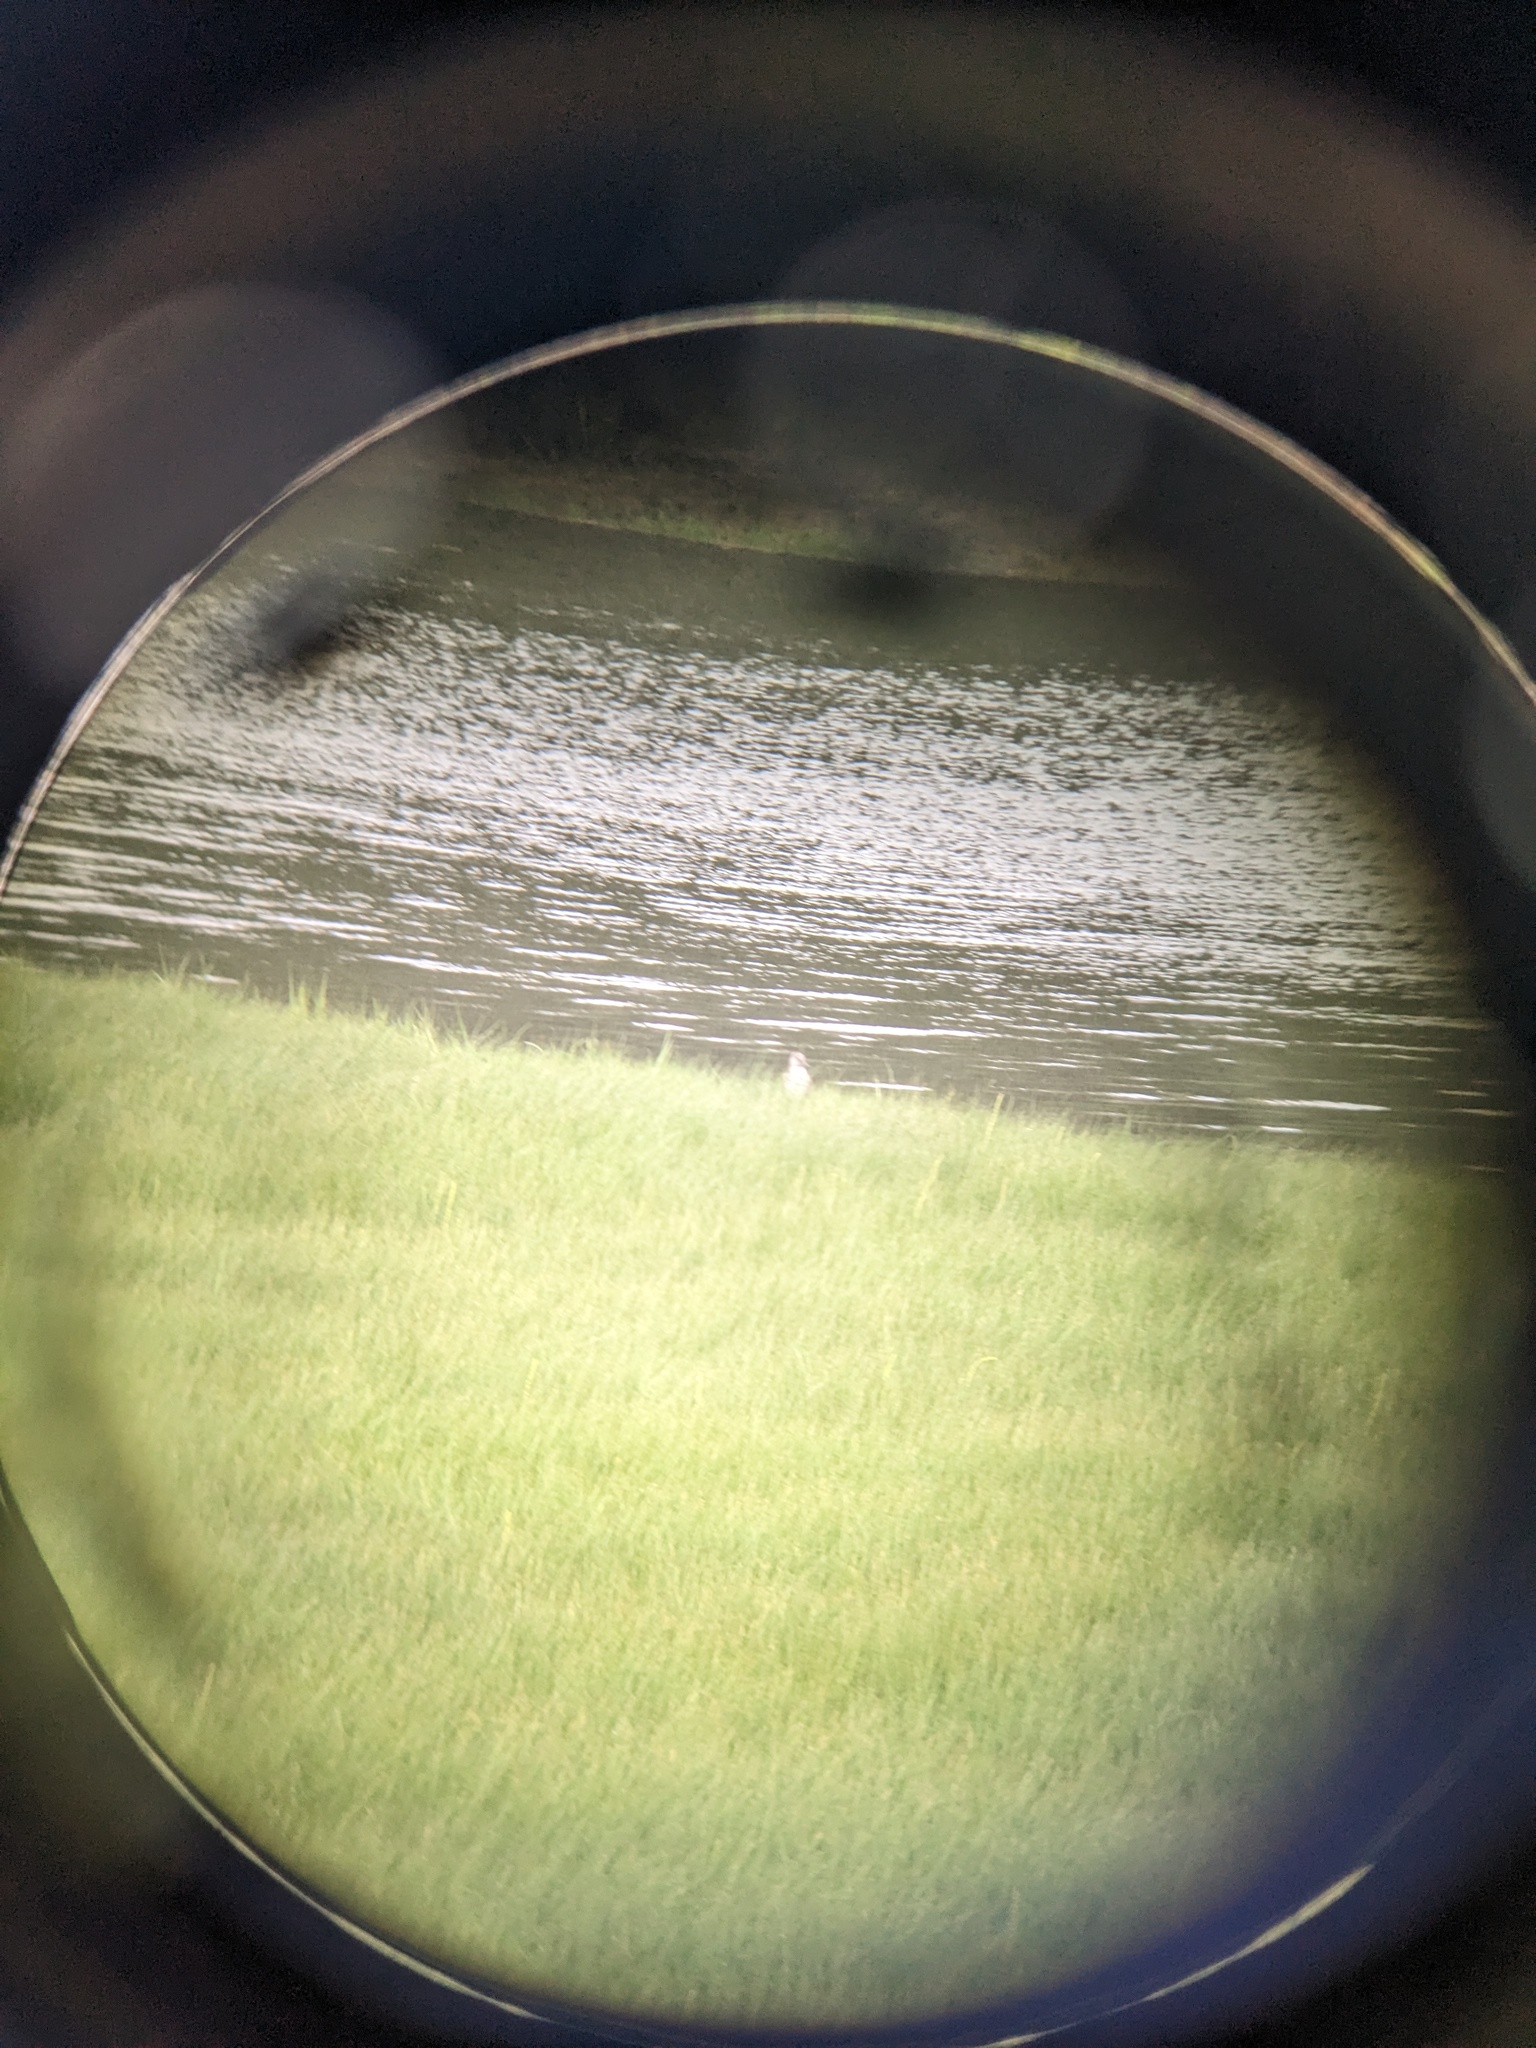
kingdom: Animalia
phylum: Chordata
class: Aves
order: Charadriiformes
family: Scolopacidae
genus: Actitis
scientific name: Actitis macularius
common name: Spotted sandpiper
